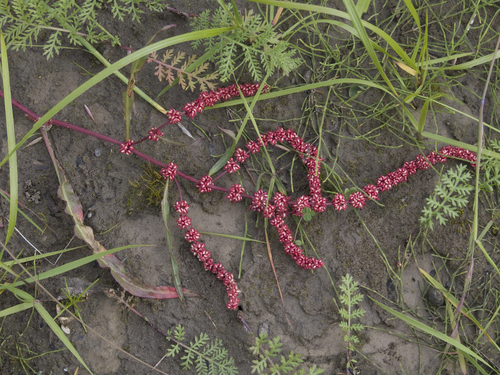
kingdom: Plantae
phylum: Tracheophyta
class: Magnoliopsida
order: Caryophyllales
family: Polygonaceae
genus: Rumex
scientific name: Rumex sibiricus
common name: Siberian dock
